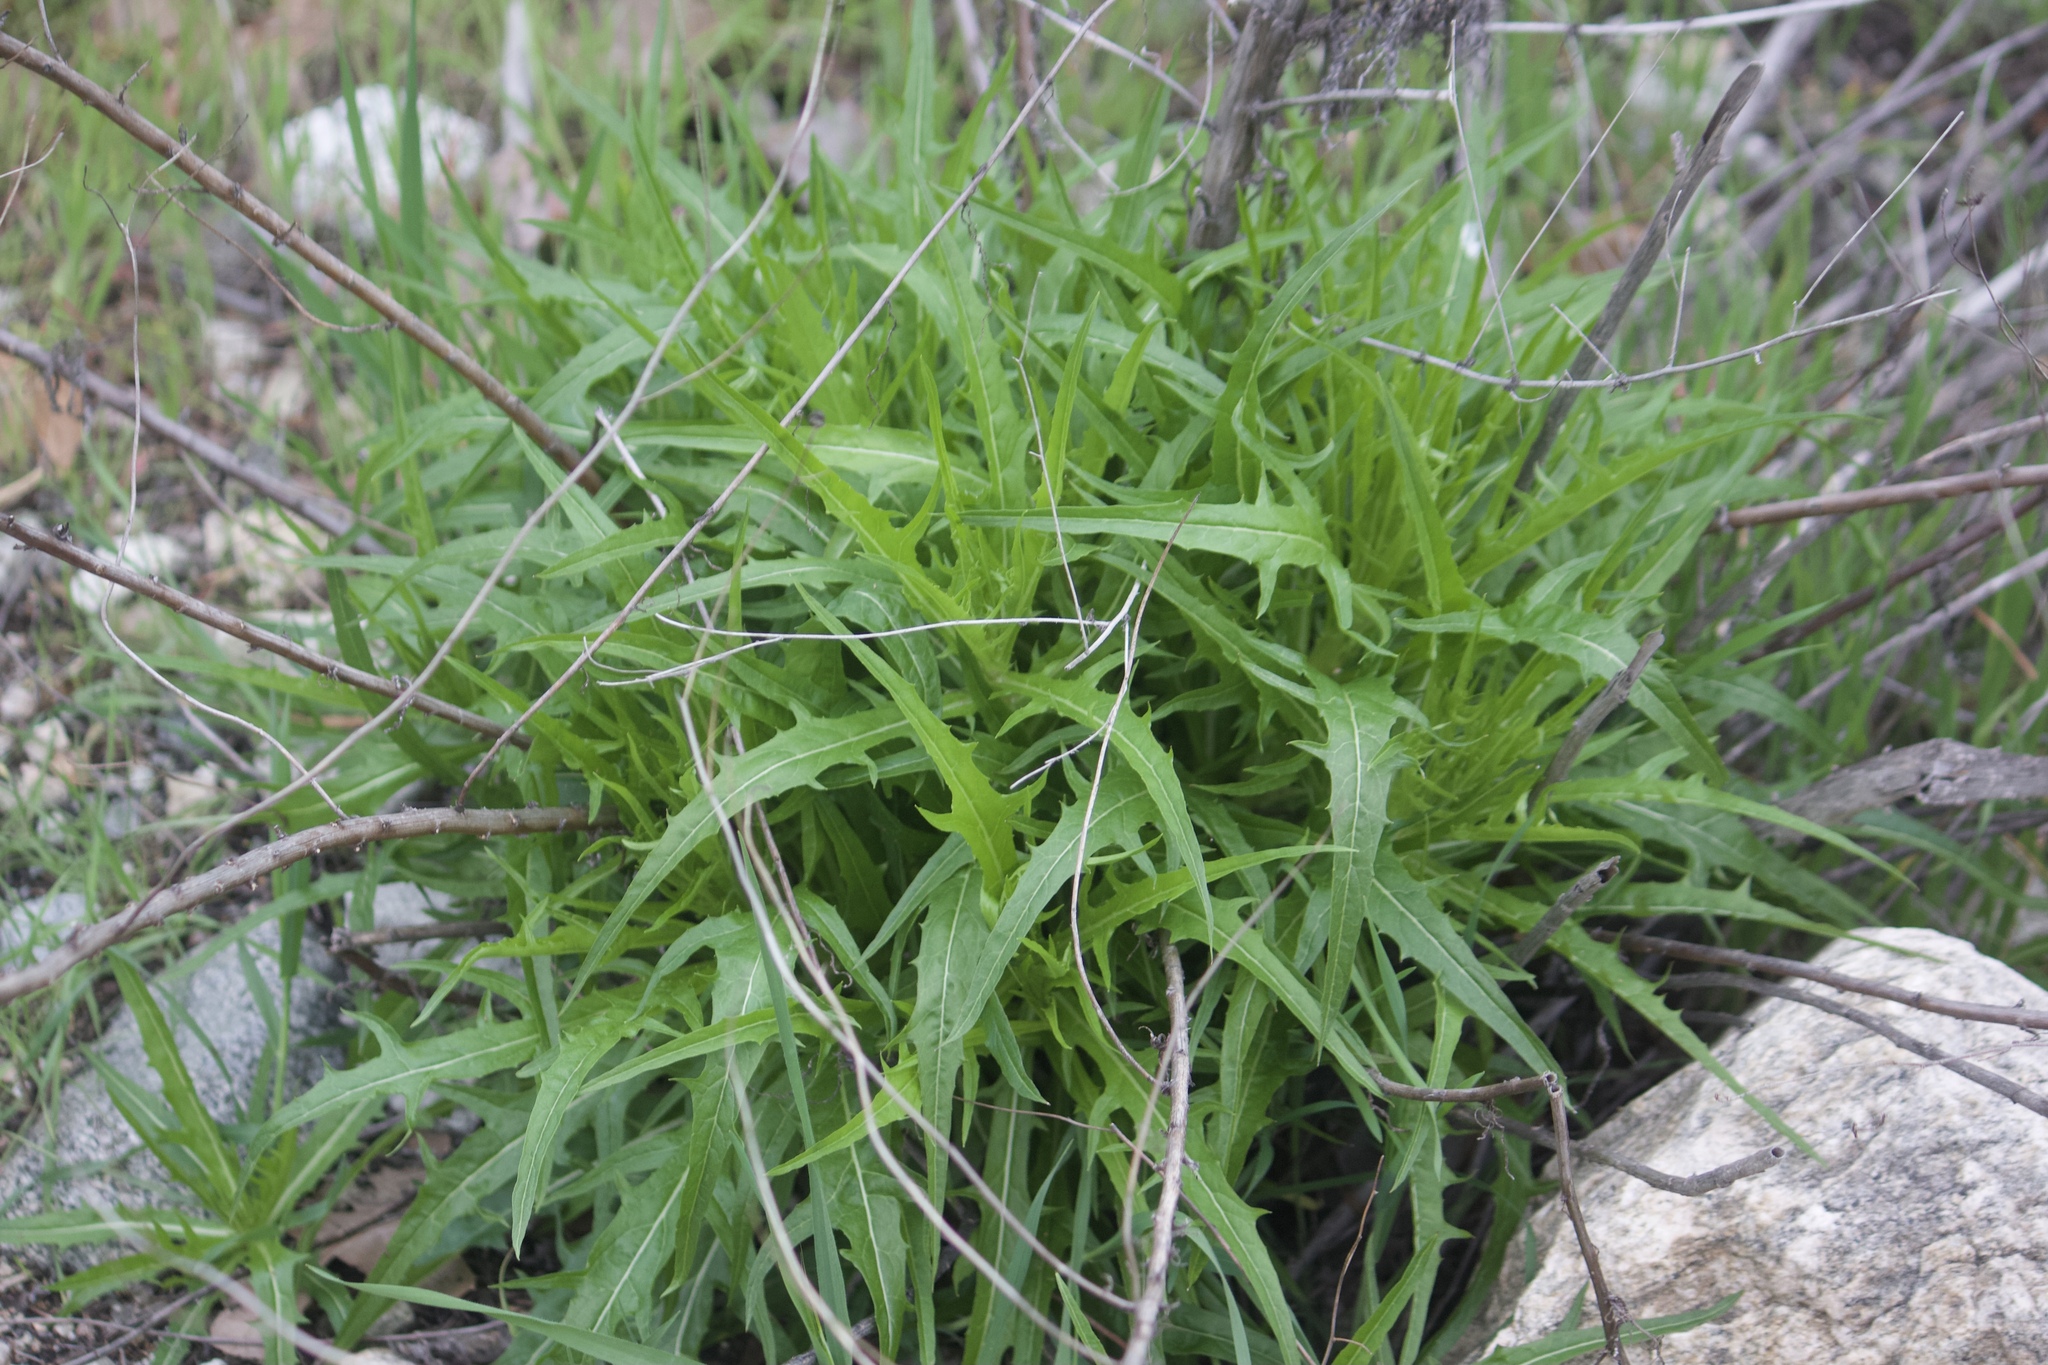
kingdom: Plantae
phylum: Tracheophyta
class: Magnoliopsida
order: Asterales
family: Asteraceae
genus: Malacothrix
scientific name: Malacothrix saxatilis
